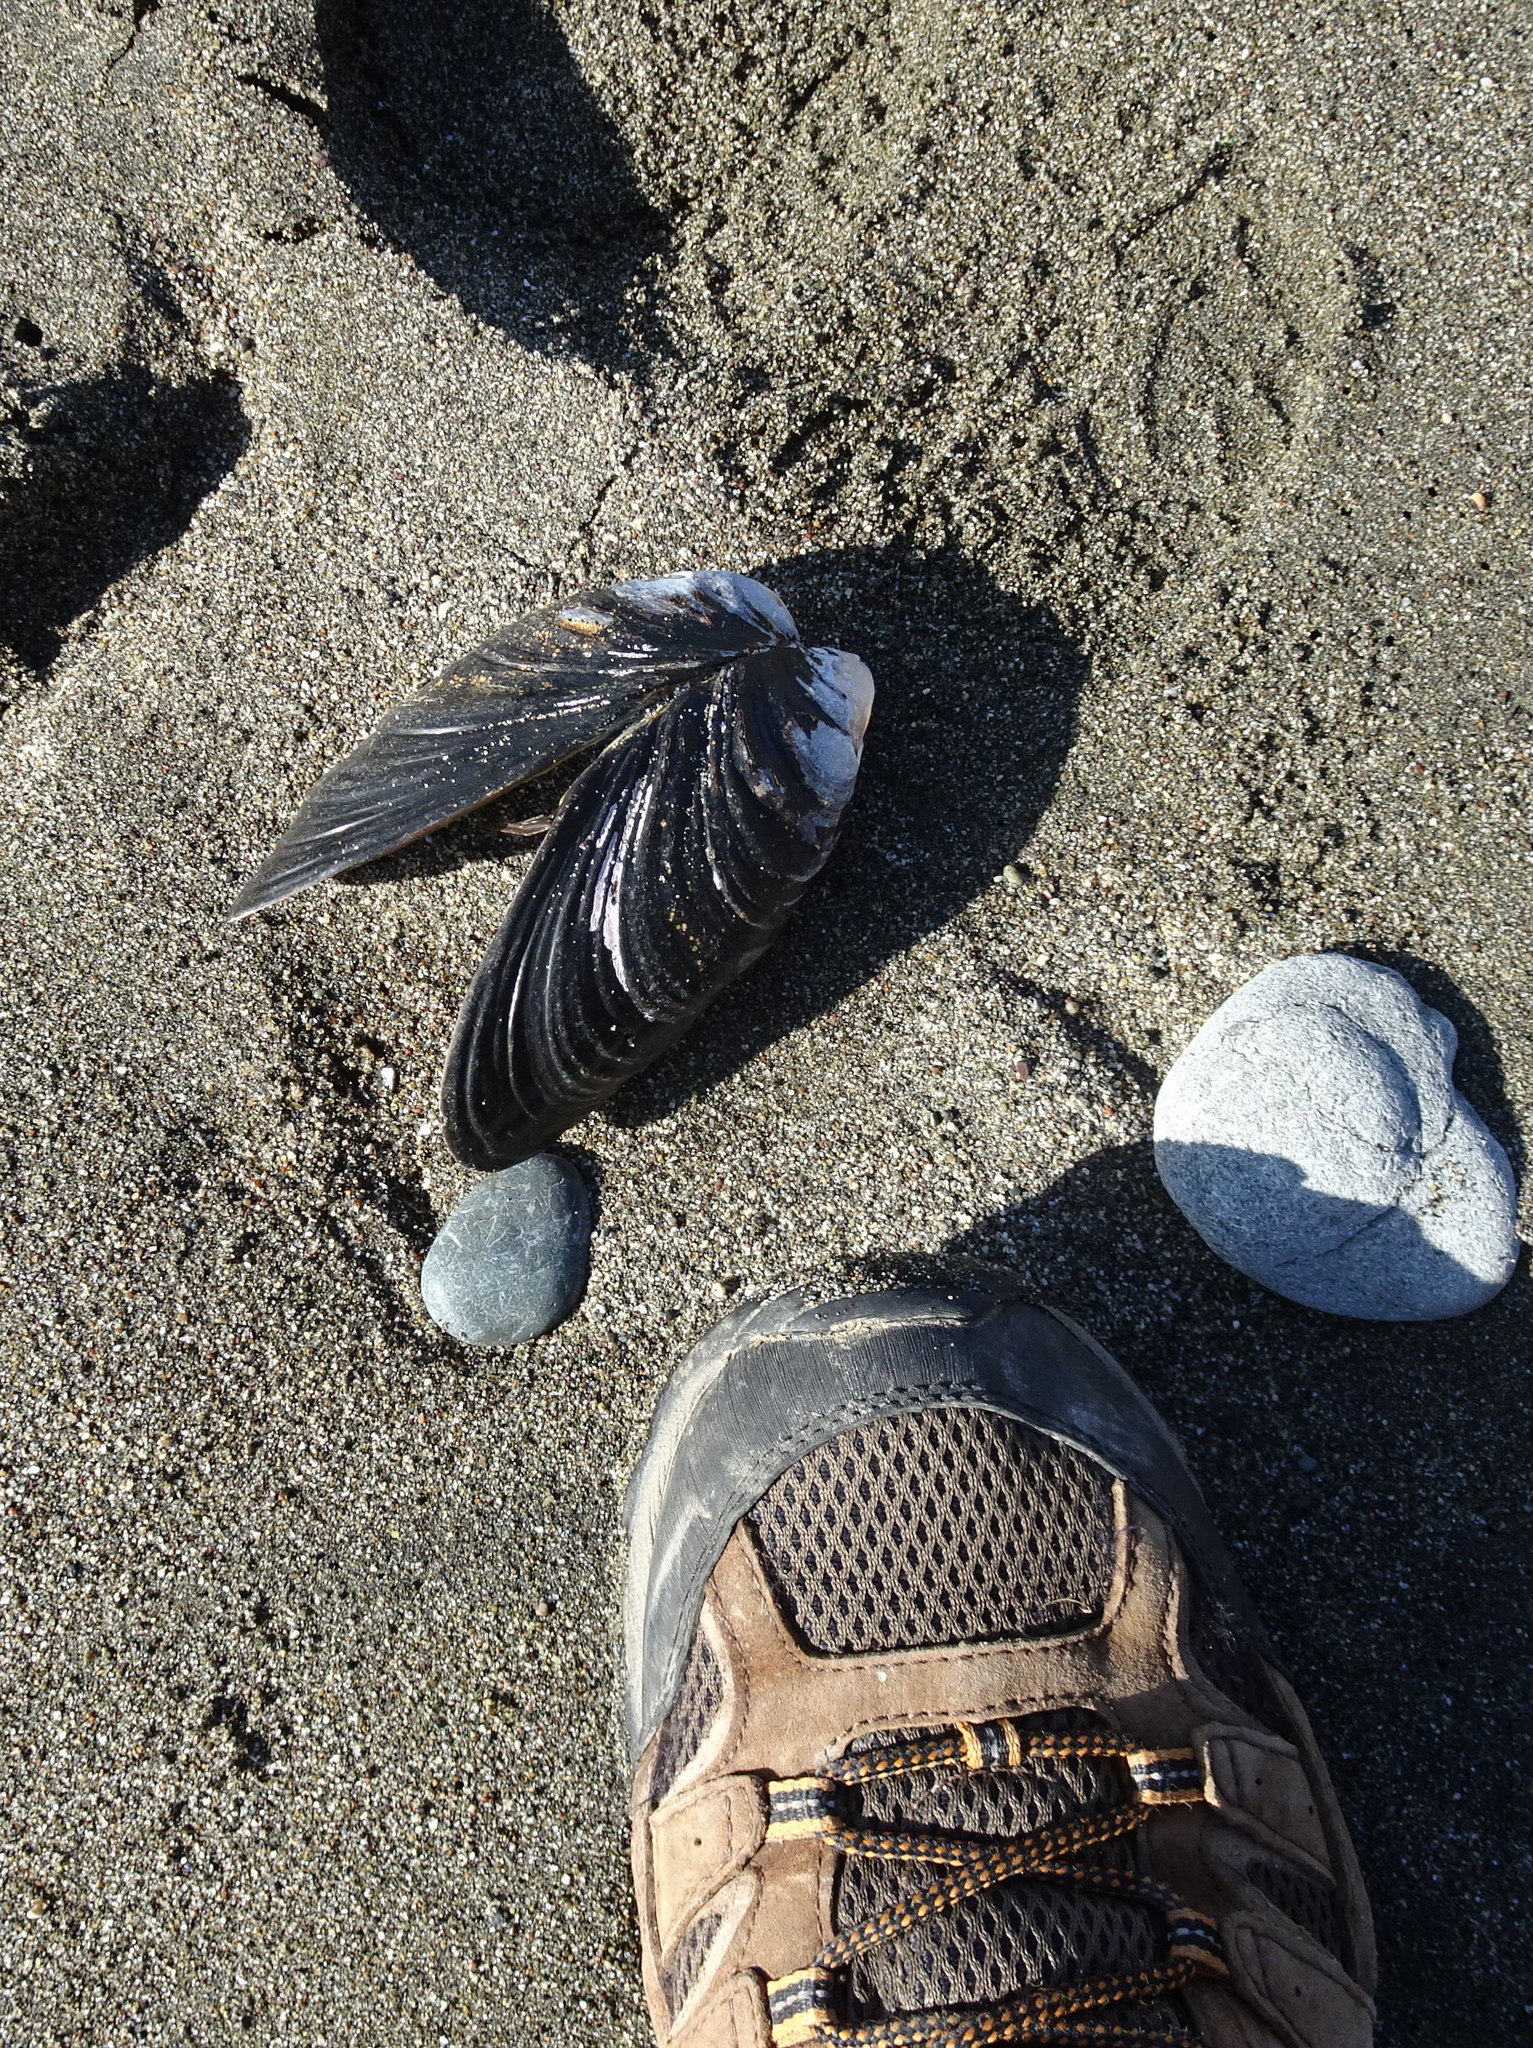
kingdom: Animalia
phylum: Mollusca
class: Bivalvia
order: Mytilida
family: Mytilidae
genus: Mytilus
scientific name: Mytilus californianus
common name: California mussel
